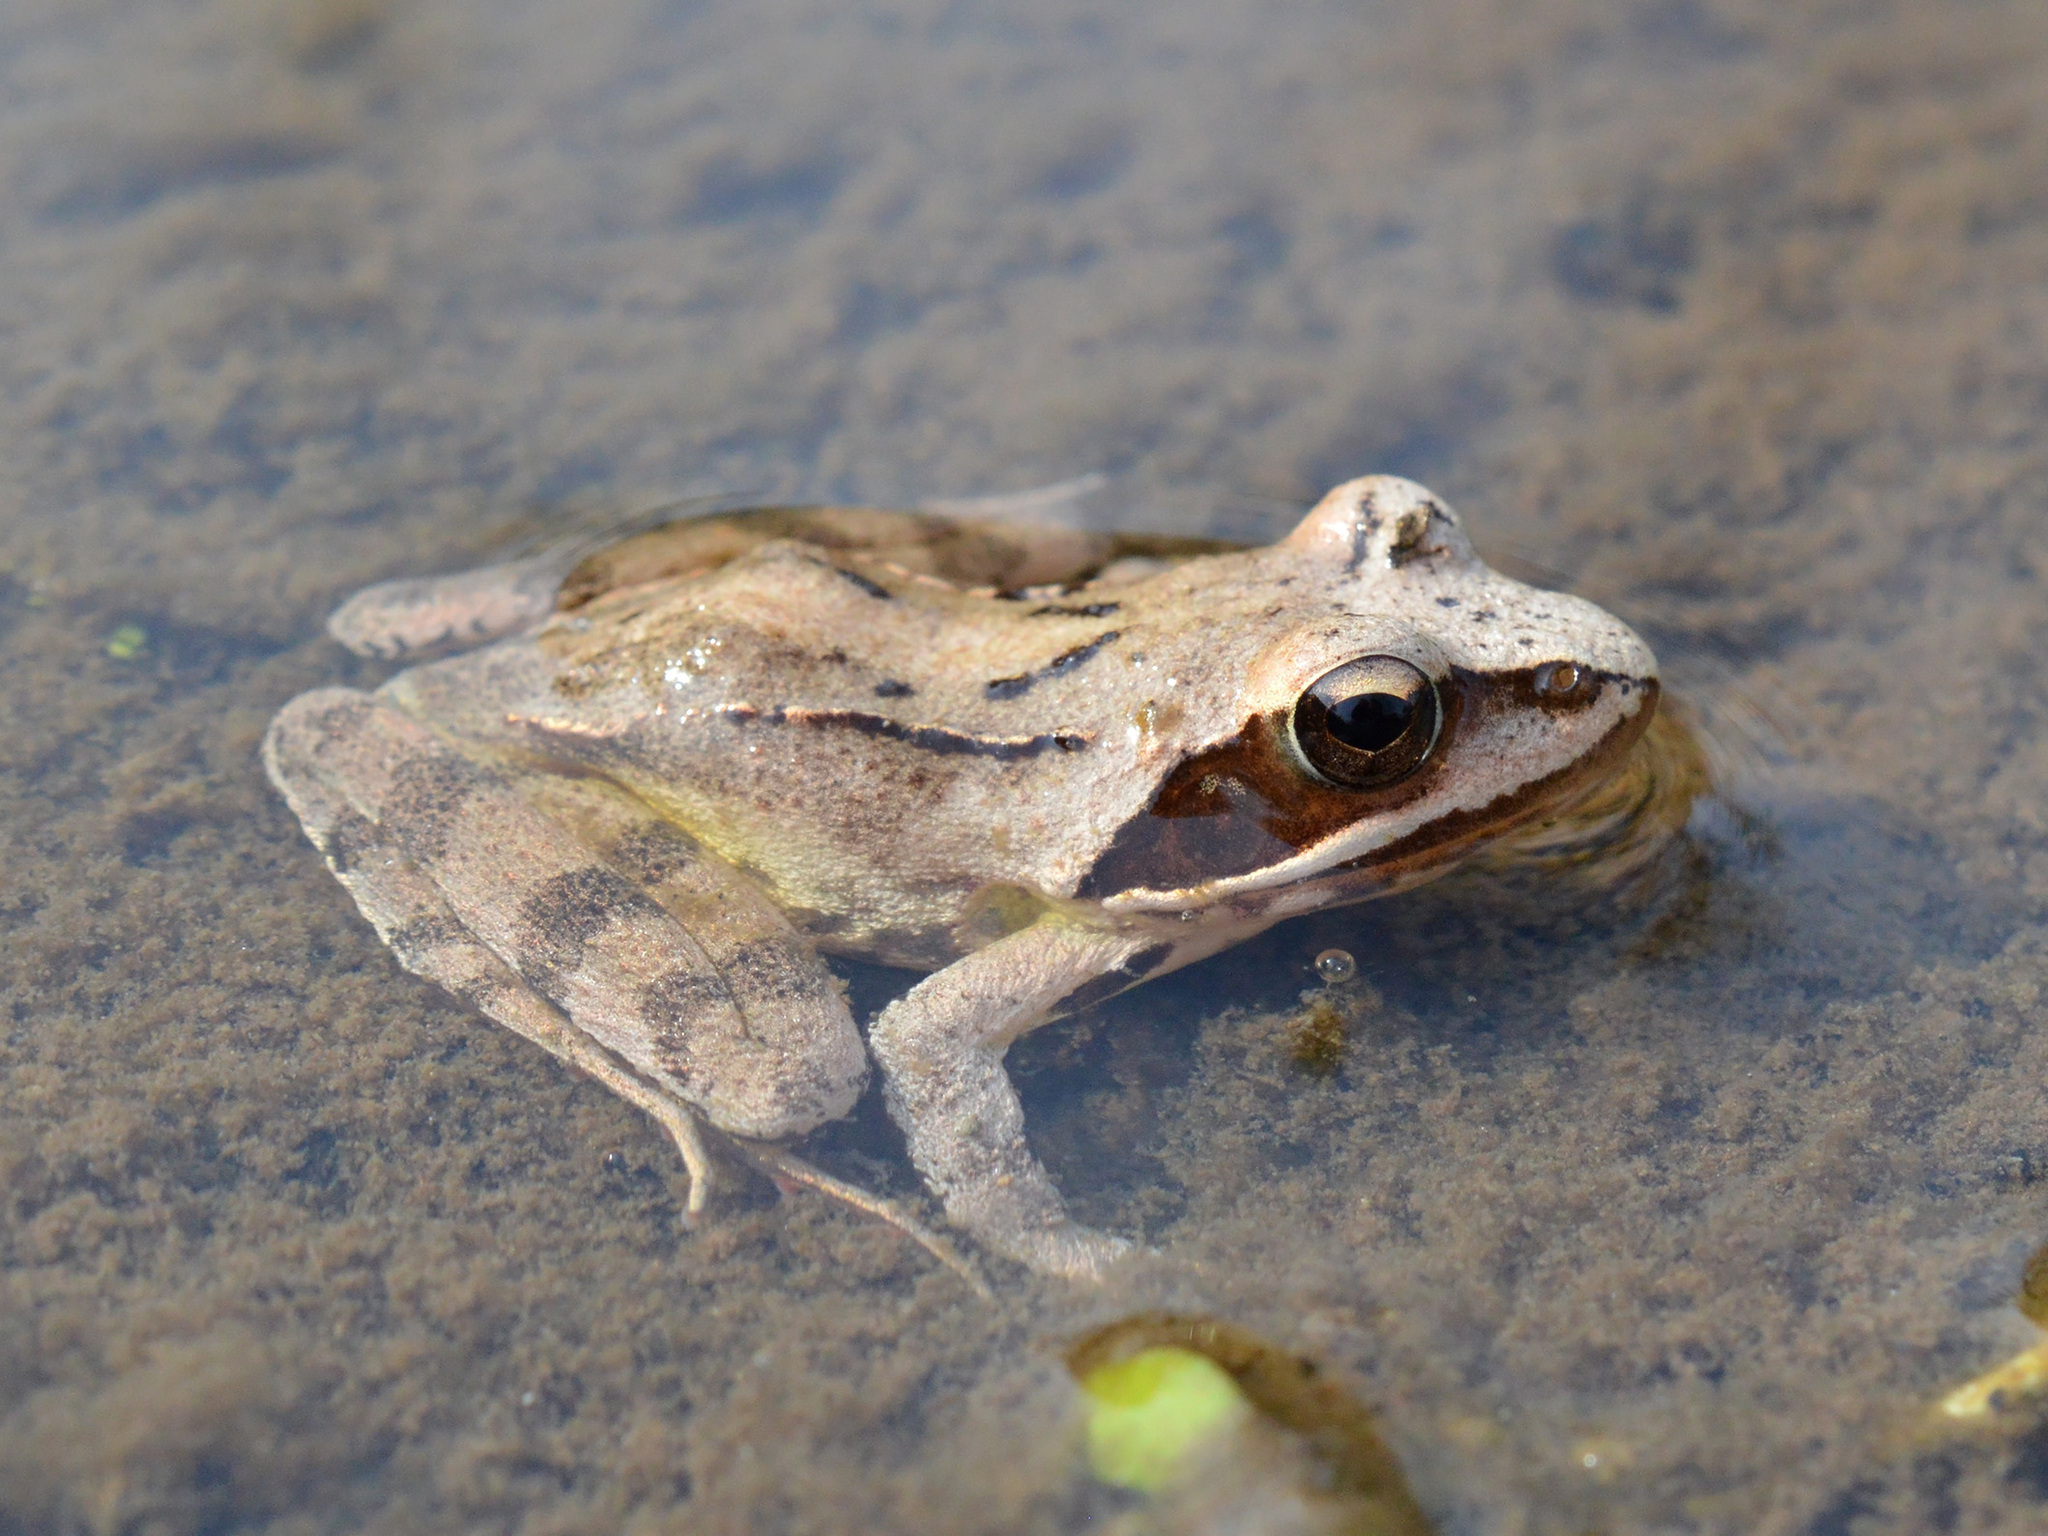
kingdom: Animalia
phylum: Chordata
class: Amphibia
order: Anura
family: Ranidae
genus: Rana
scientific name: Rana dalmatina
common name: Agile frog
